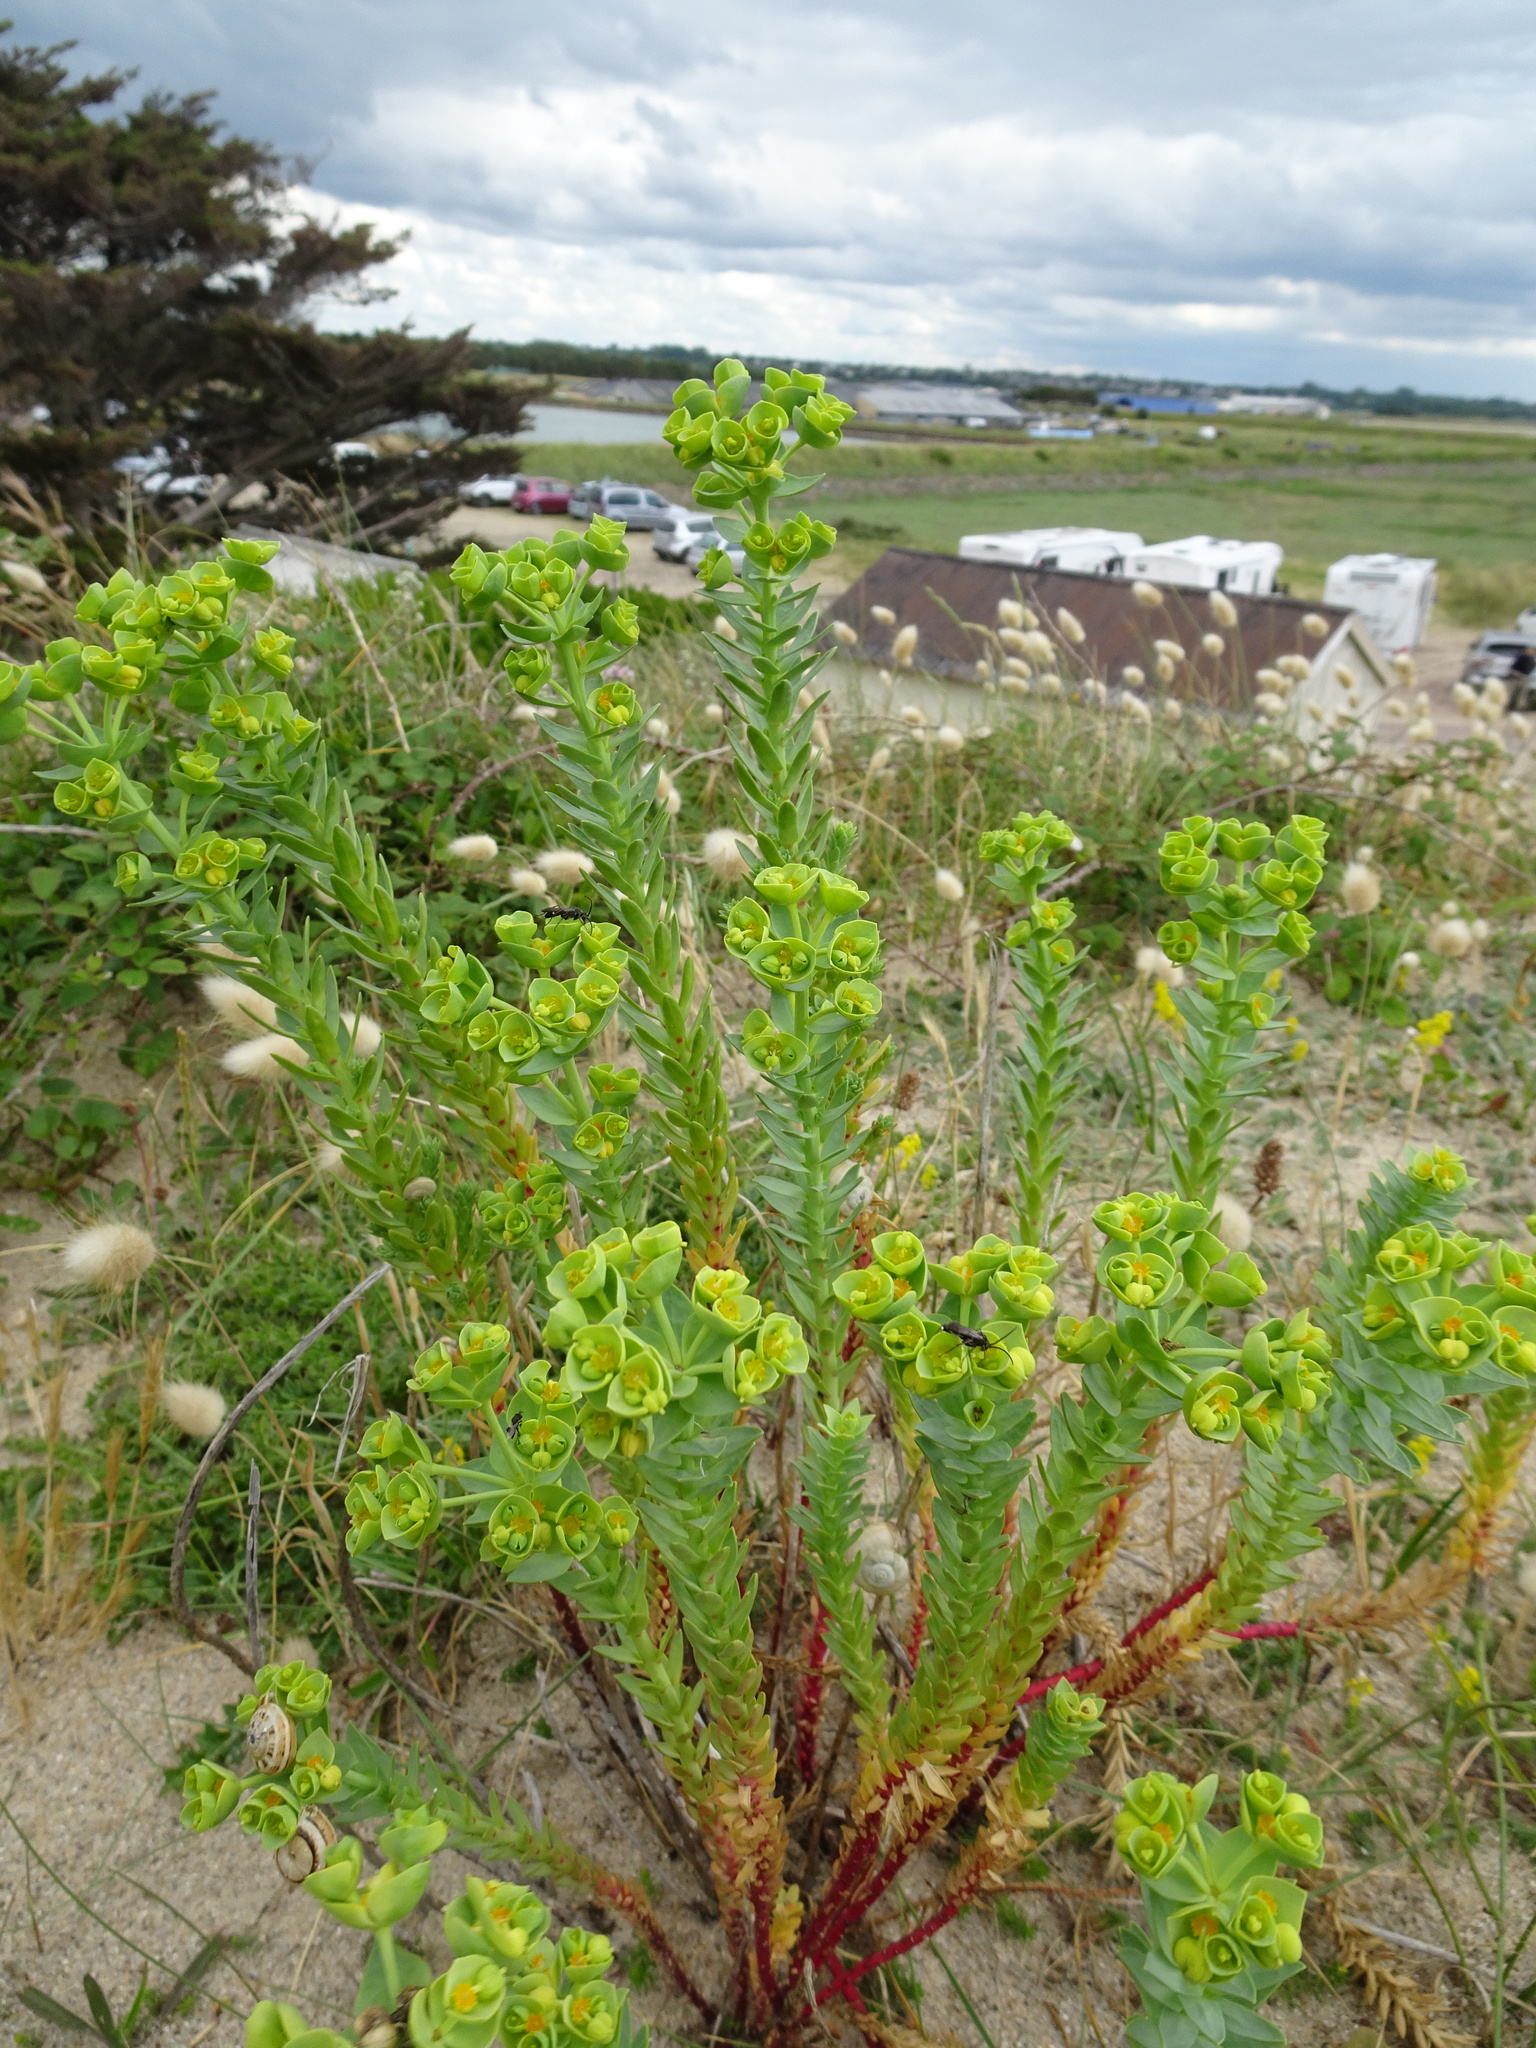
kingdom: Plantae
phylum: Tracheophyta
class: Magnoliopsida
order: Malpighiales
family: Euphorbiaceae
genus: Euphorbia
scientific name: Euphorbia paralias
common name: Sea spurge
